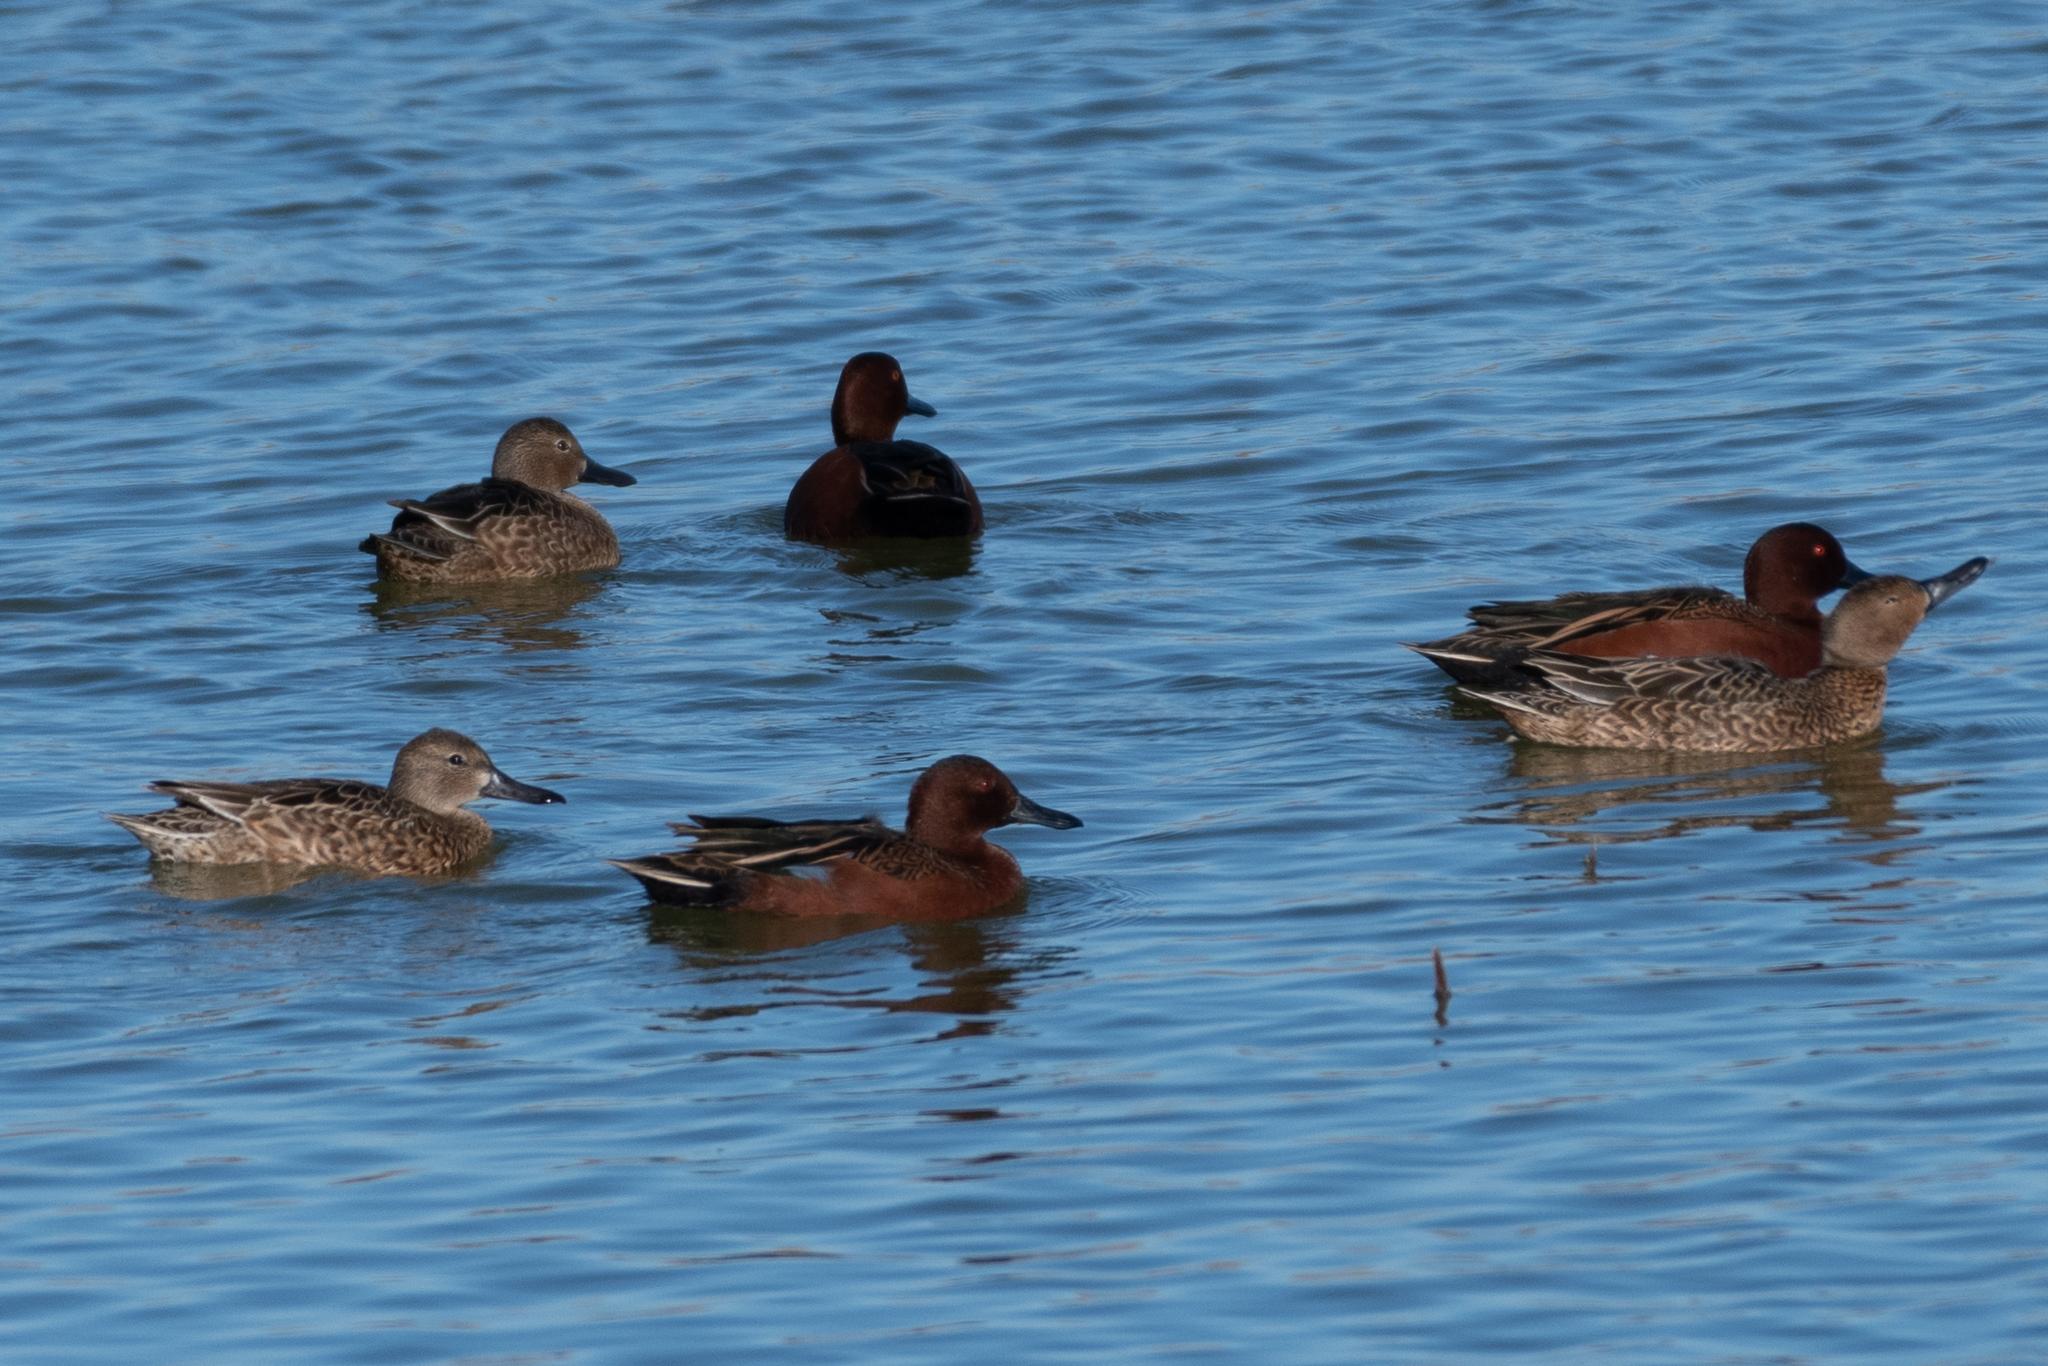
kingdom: Animalia
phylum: Chordata
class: Aves
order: Anseriformes
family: Anatidae
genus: Spatula
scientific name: Spatula cyanoptera
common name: Cinnamon teal
